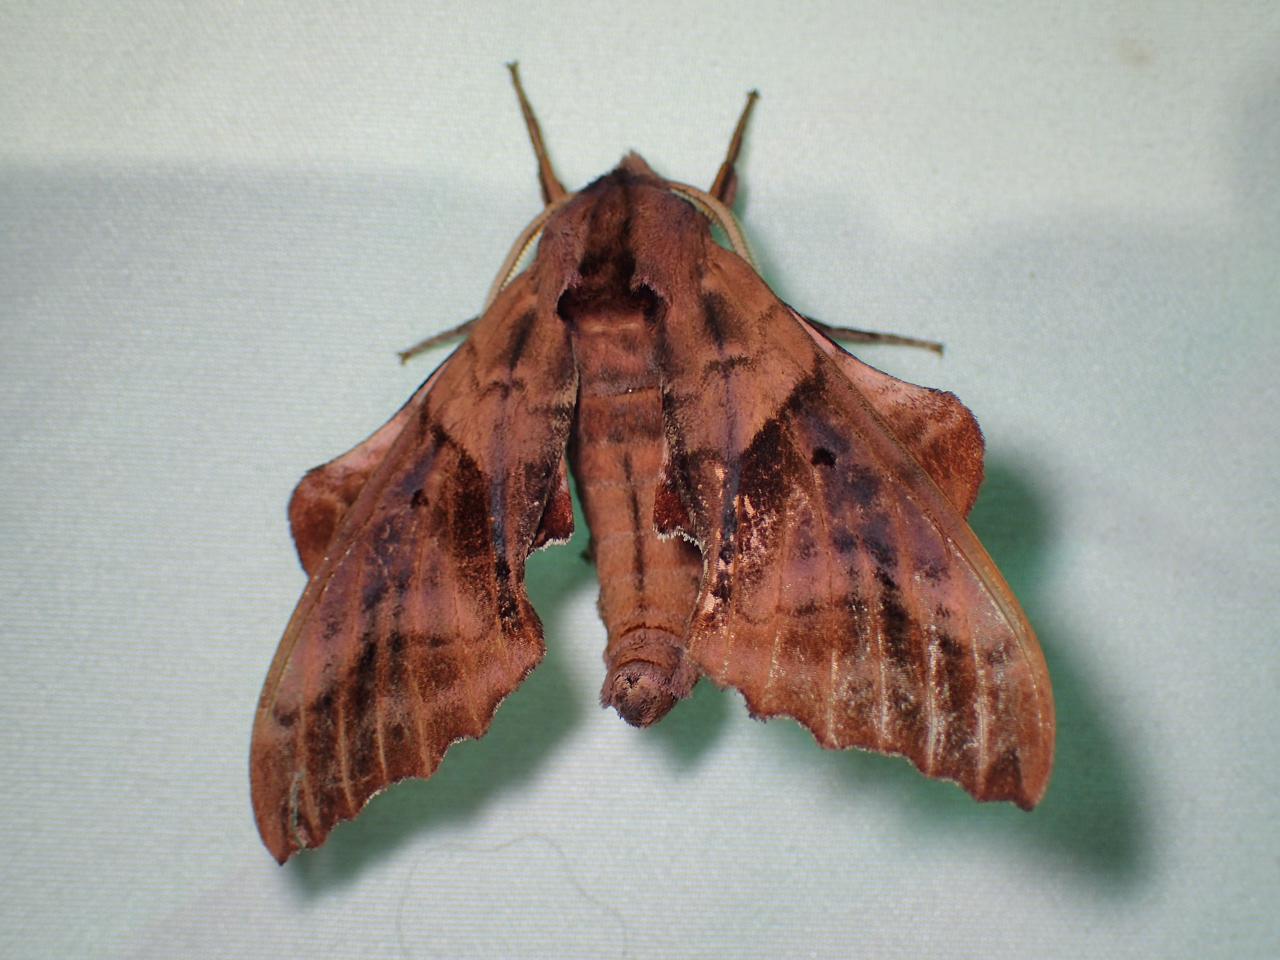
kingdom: Animalia
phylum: Arthropoda
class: Insecta
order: Lepidoptera
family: Sphingidae
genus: Paonias
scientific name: Paonias excaecata
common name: Blind-eyed sphinx
